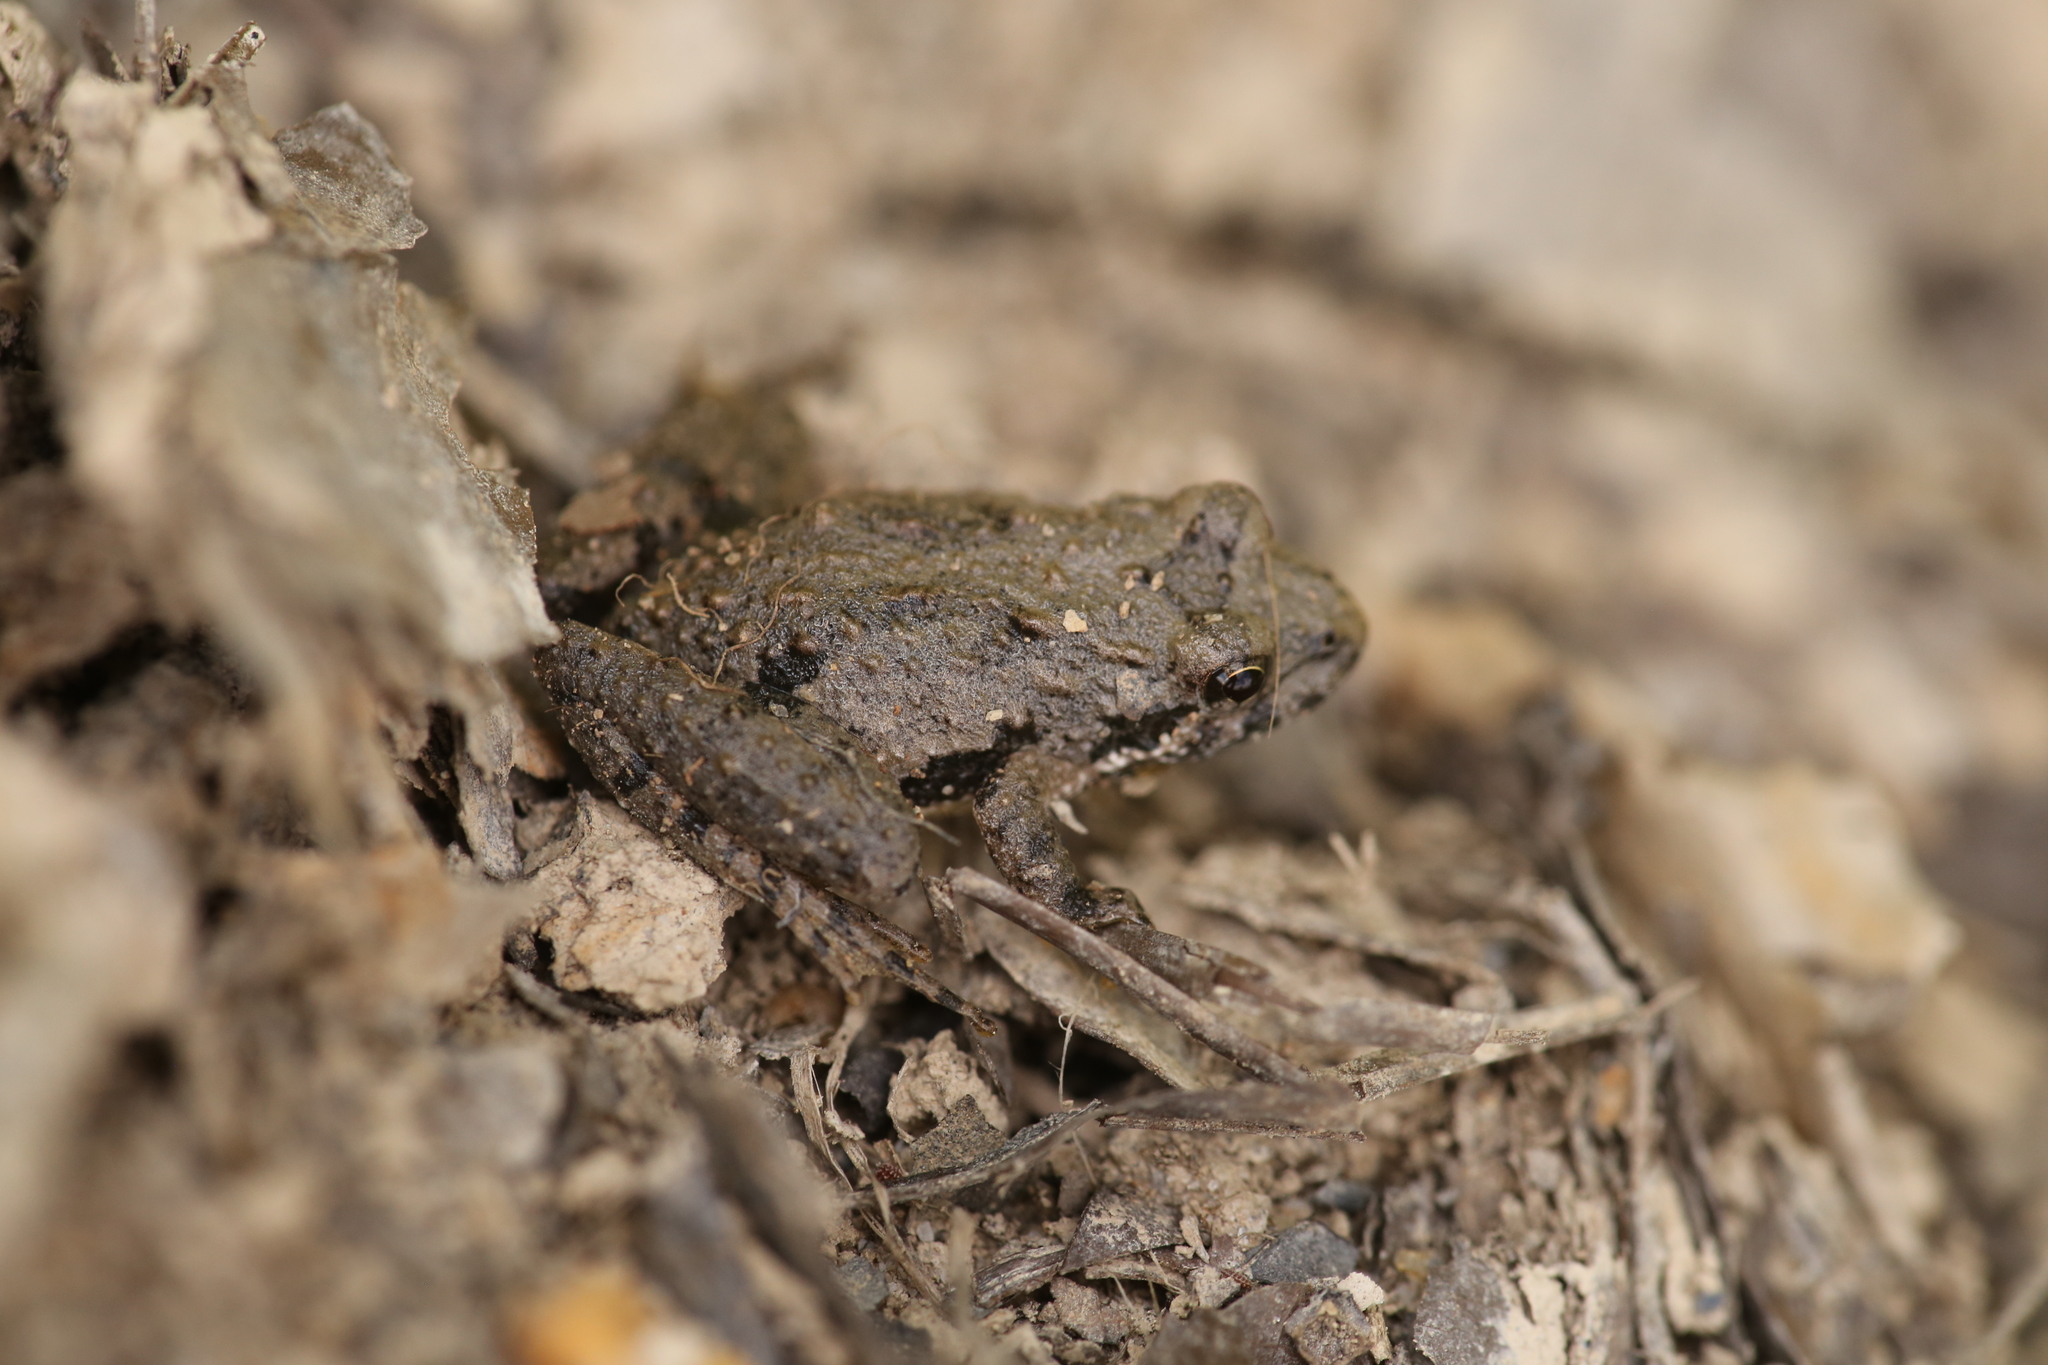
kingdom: Animalia
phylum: Chordata
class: Amphibia
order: Anura
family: Hylidae
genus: Acris
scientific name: Acris crepitans
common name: Northern cricket frog
